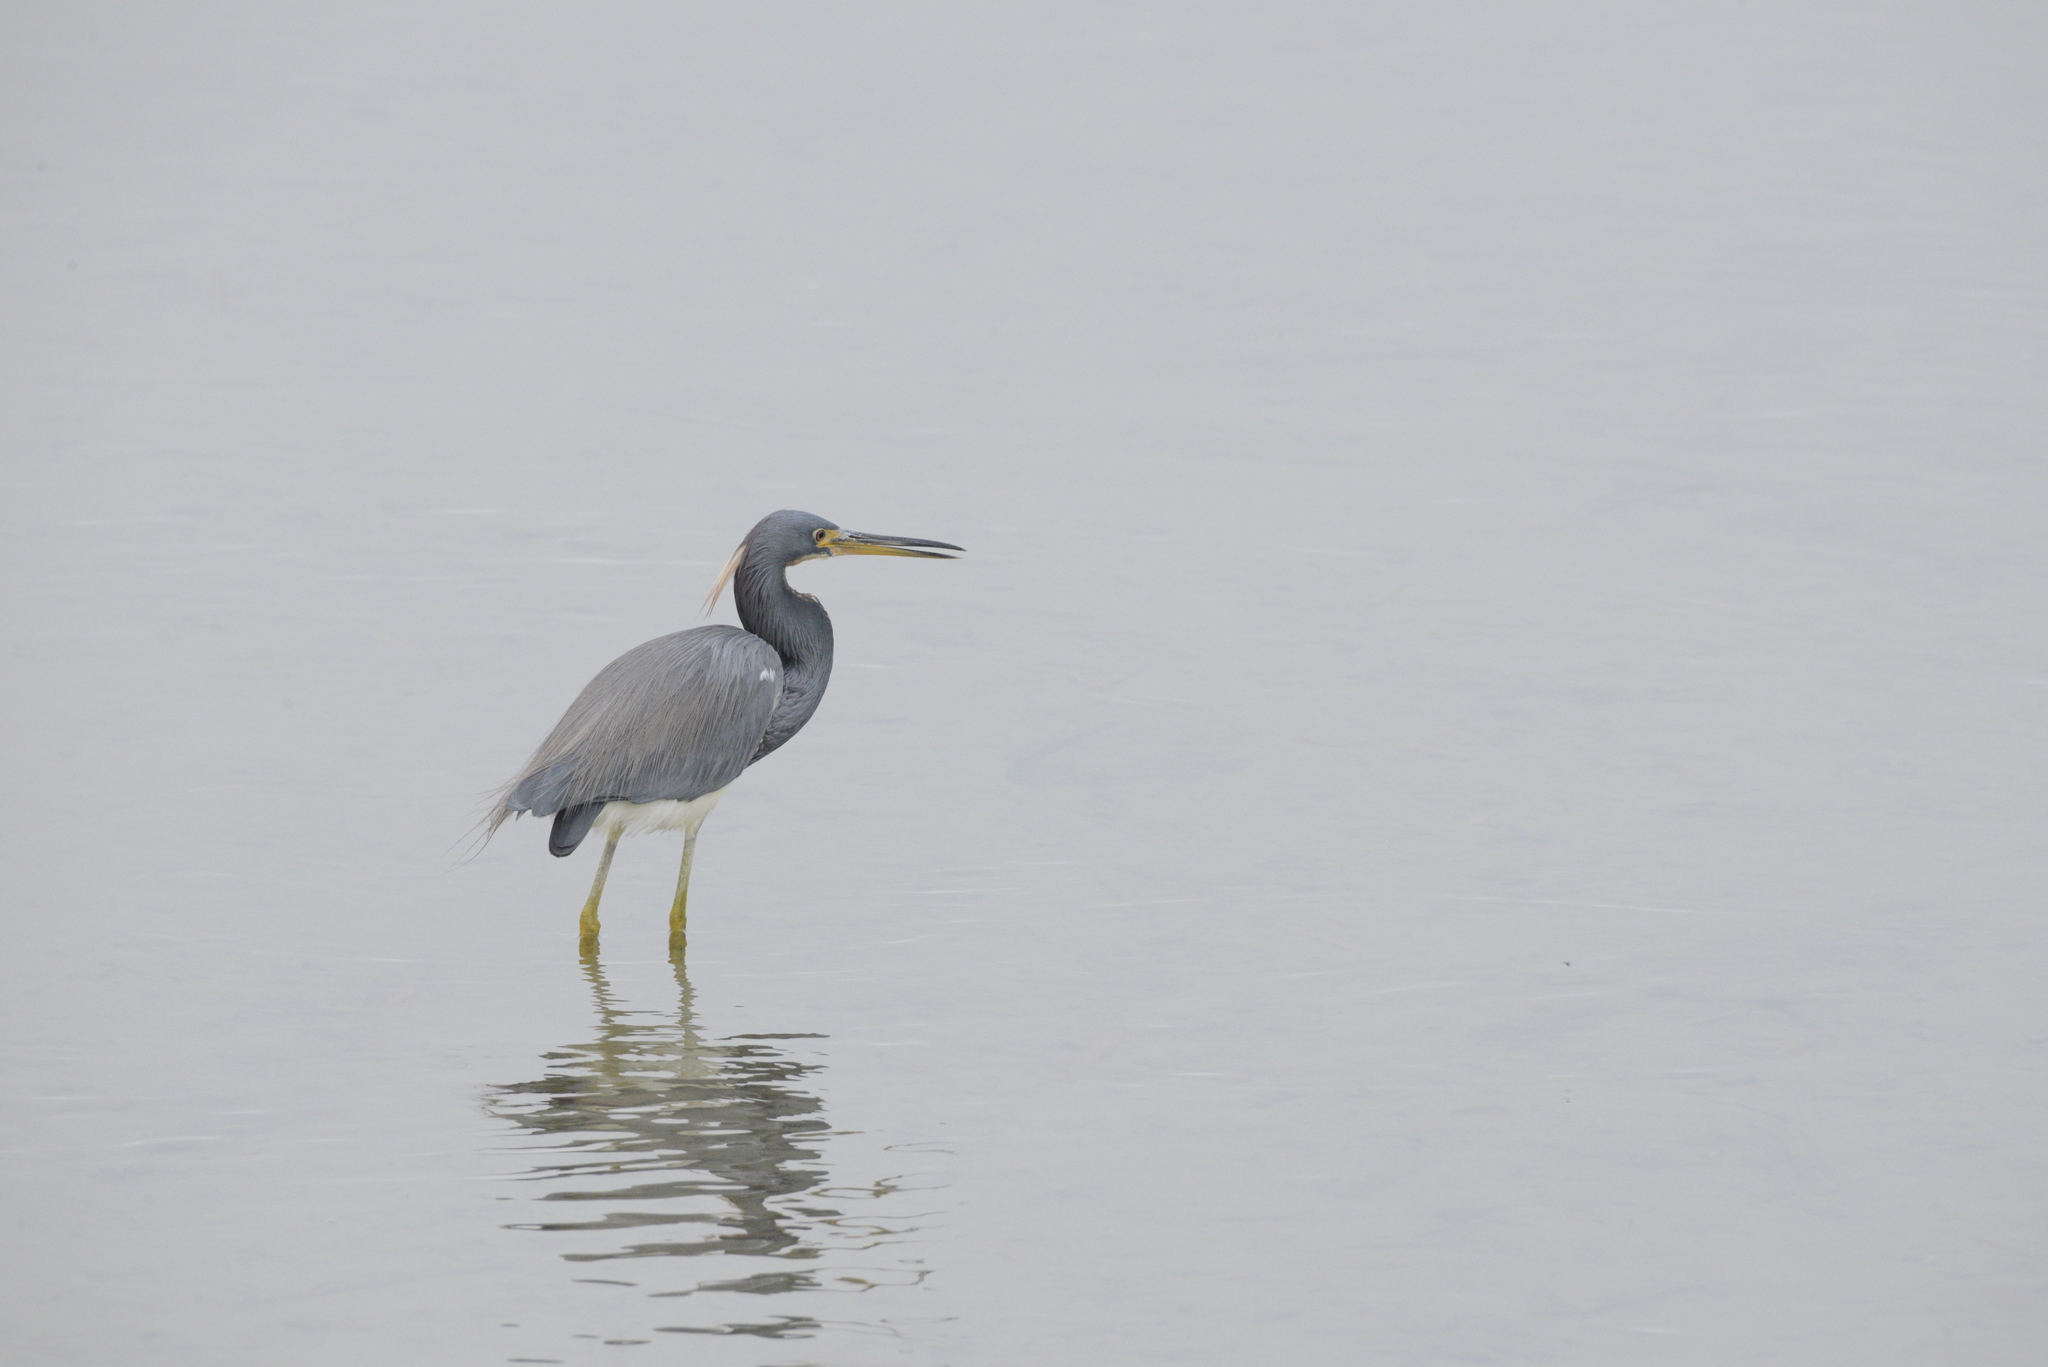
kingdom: Animalia
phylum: Chordata
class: Aves
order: Pelecaniformes
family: Ardeidae
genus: Egretta
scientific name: Egretta tricolor
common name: Tricolored heron
